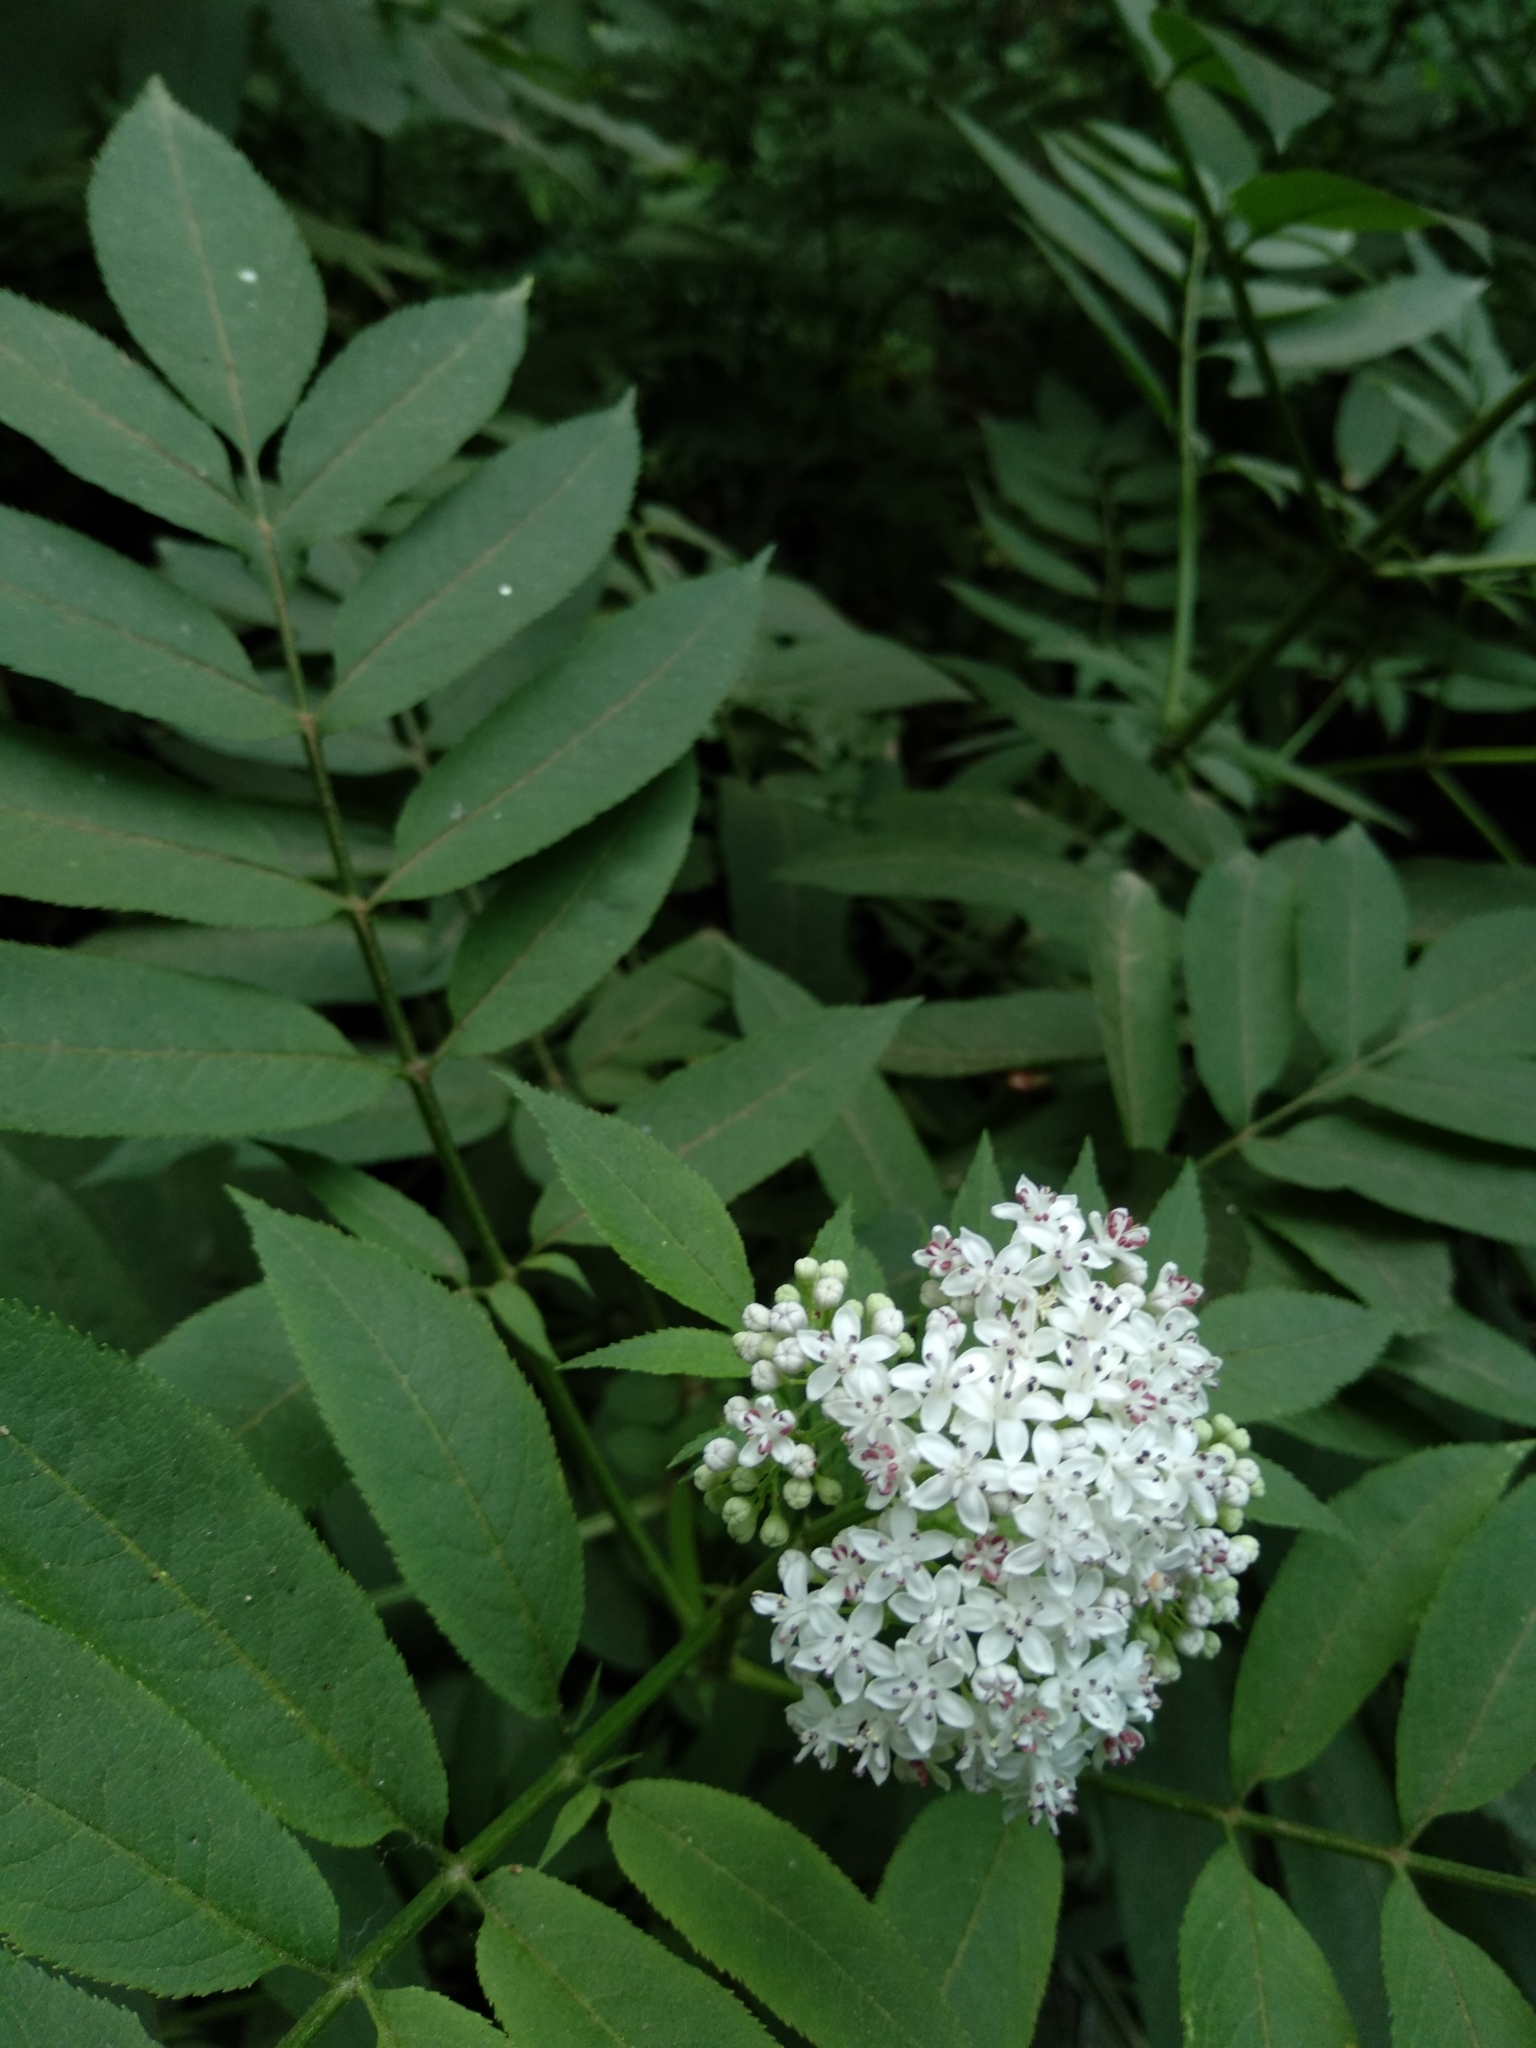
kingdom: Plantae
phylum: Tracheophyta
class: Magnoliopsida
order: Dipsacales
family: Viburnaceae
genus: Sambucus
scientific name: Sambucus ebulus
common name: Dwarf elder
